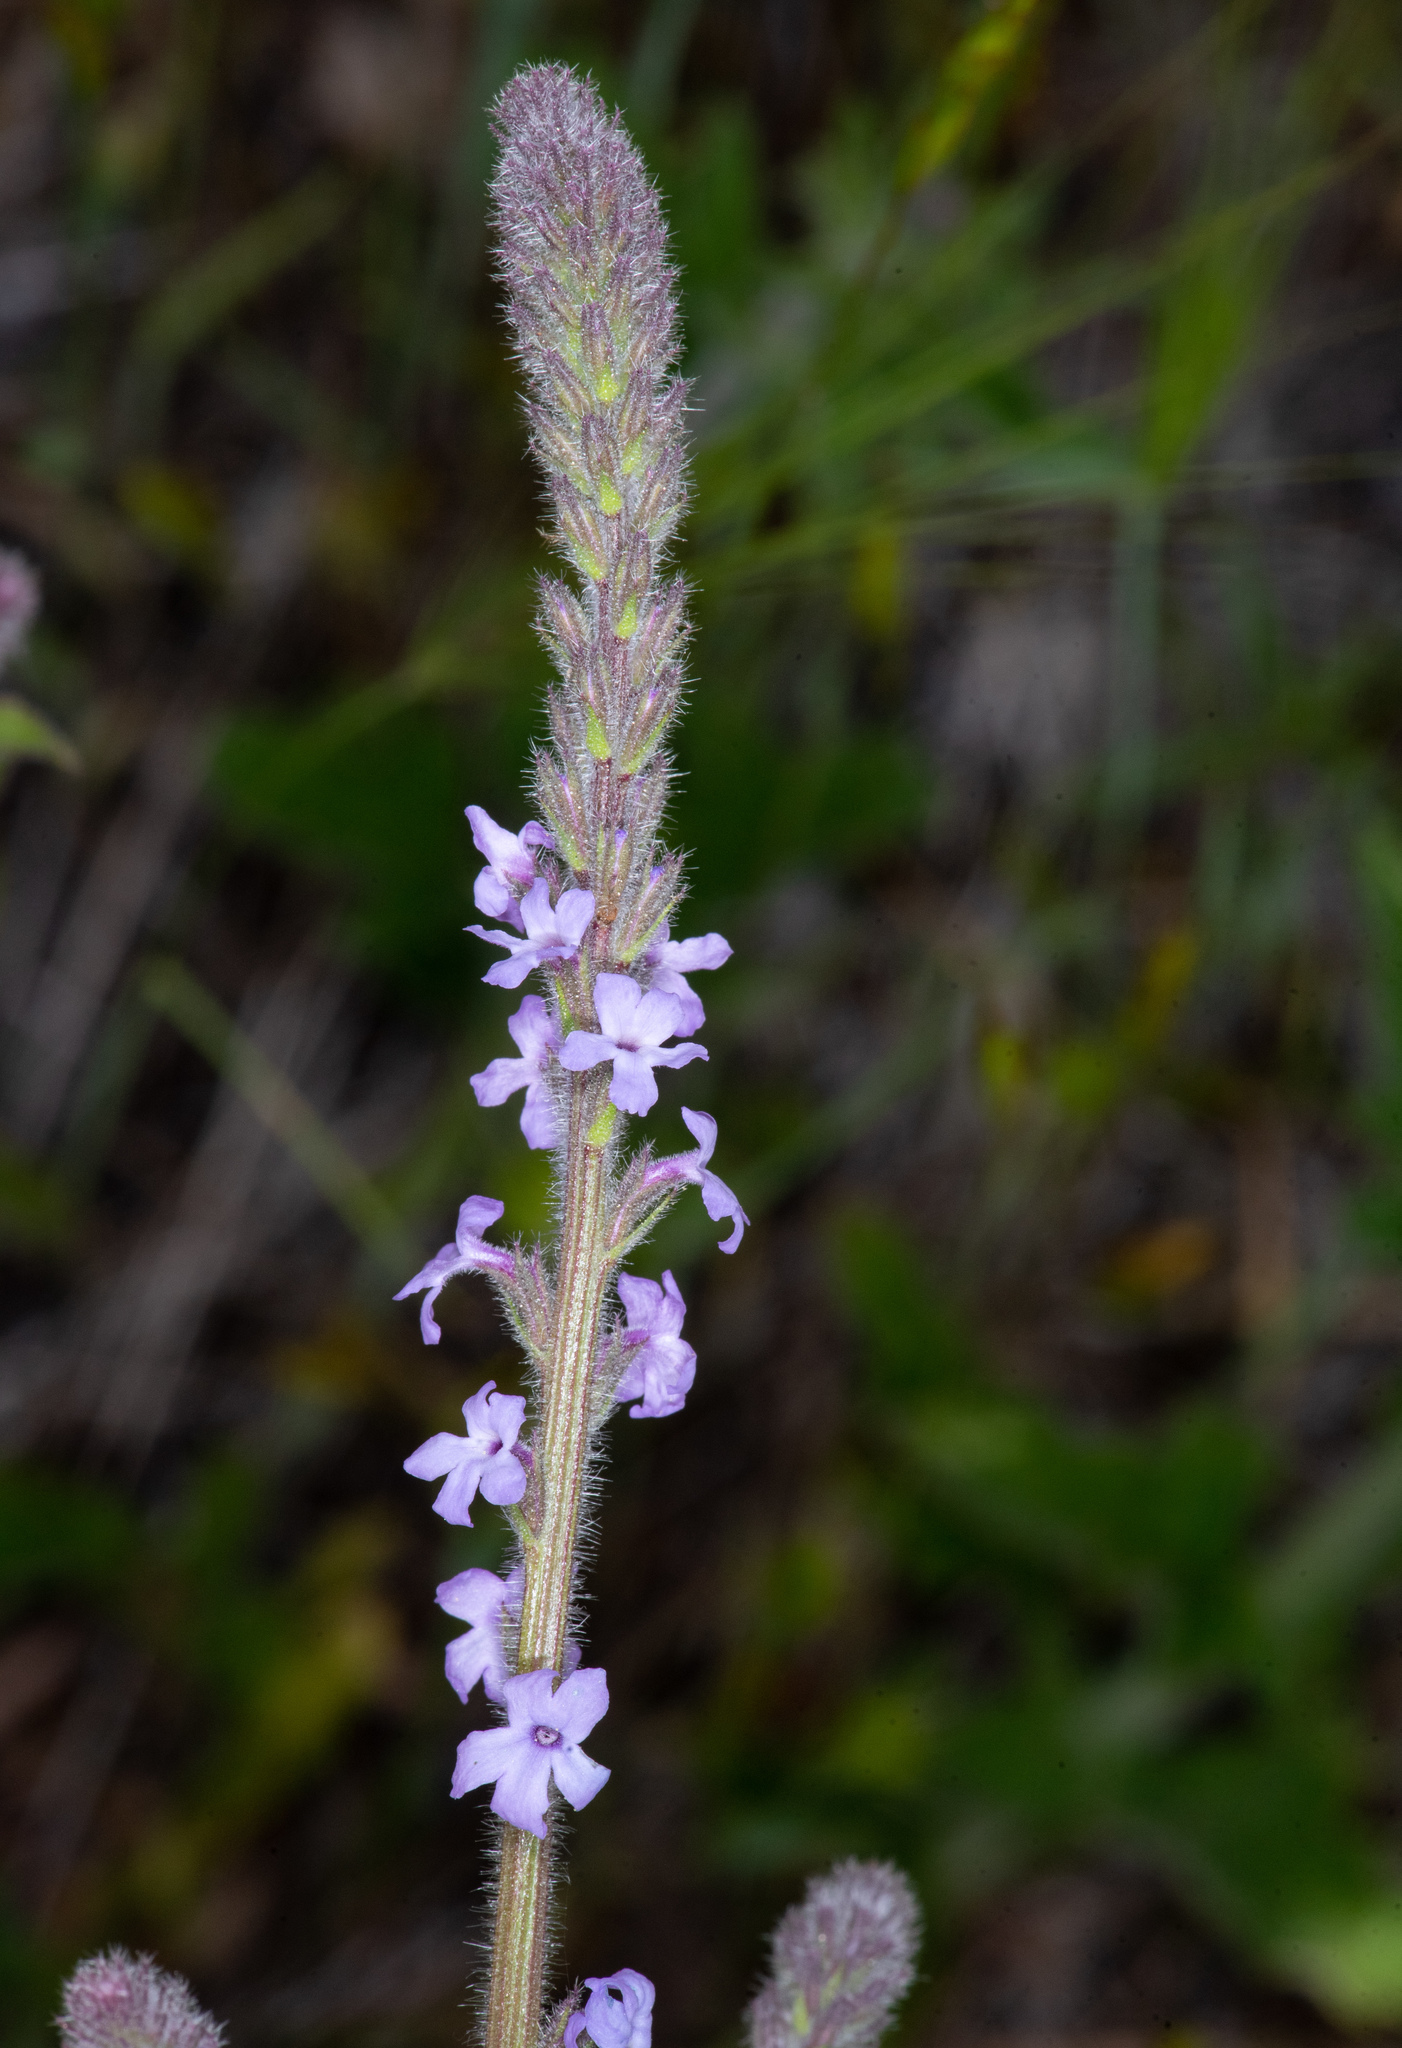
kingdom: Plantae
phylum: Tracheophyta
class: Magnoliopsida
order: Lamiales
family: Verbenaceae
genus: Verbena
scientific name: Verbena lasiostachys
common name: Vervain
